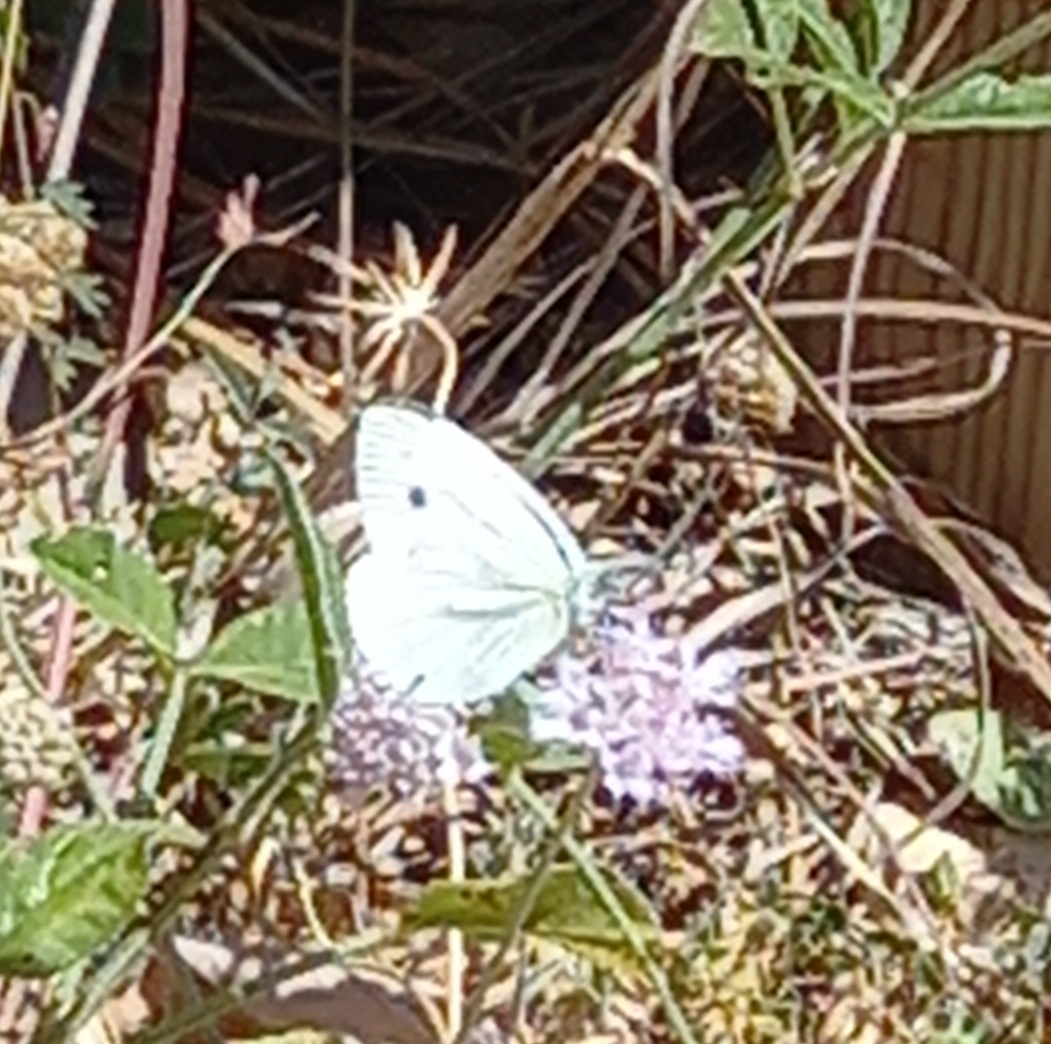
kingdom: Animalia
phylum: Arthropoda
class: Insecta
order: Lepidoptera
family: Pieridae
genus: Pieris
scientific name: Pieris rapae
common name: Small white
